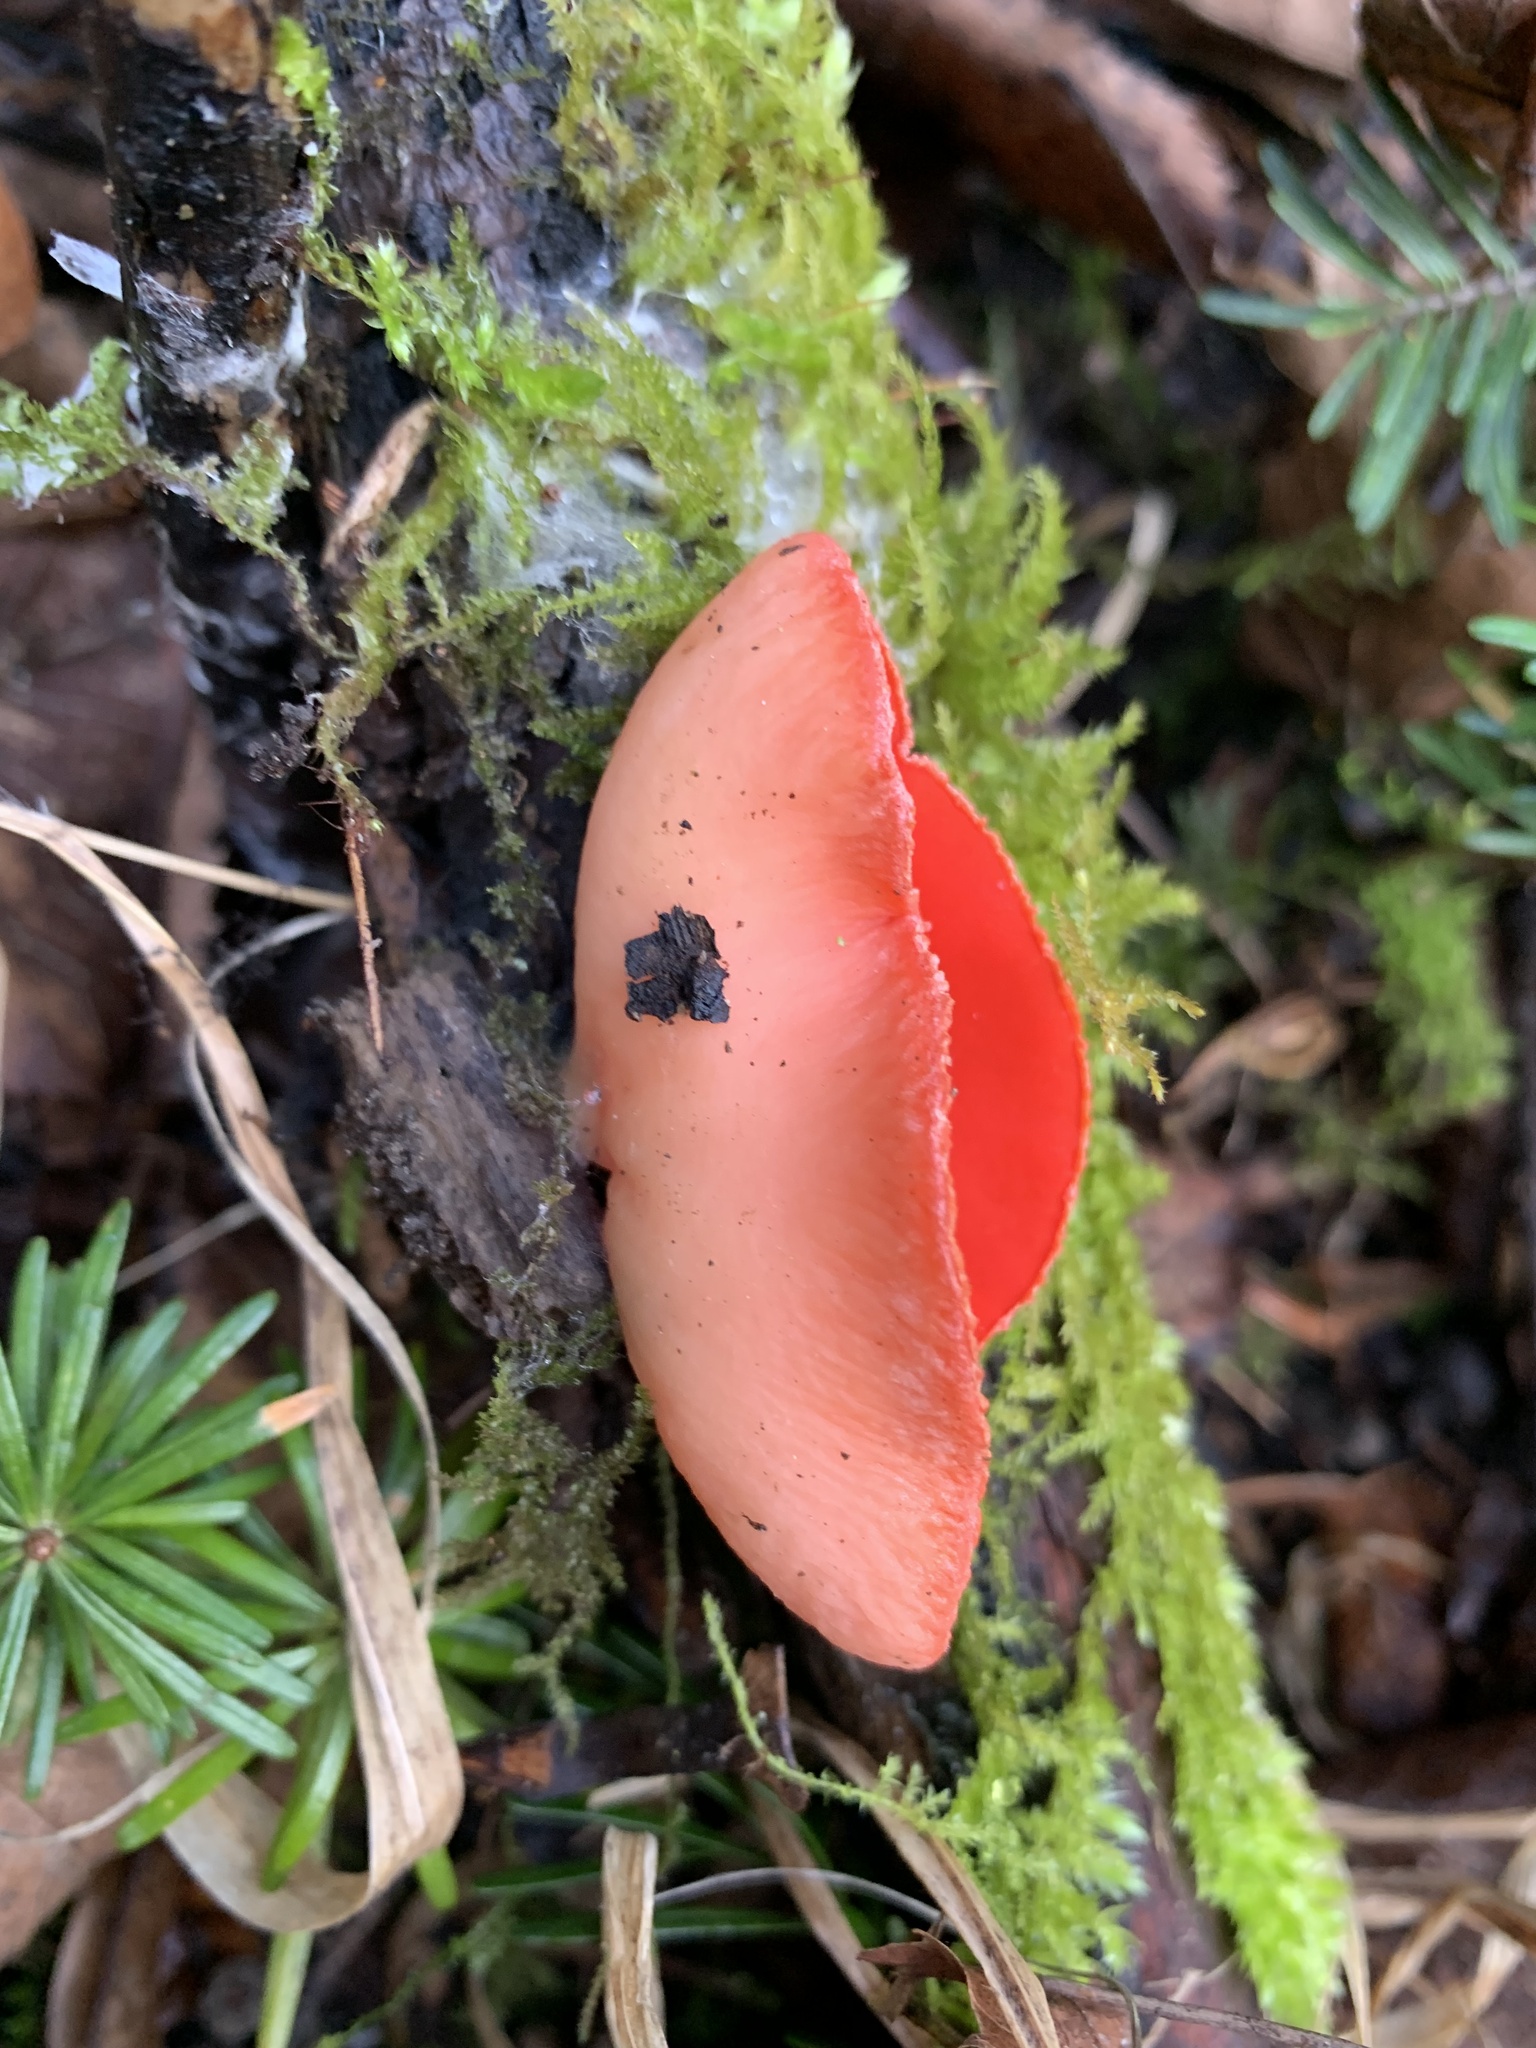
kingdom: Fungi
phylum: Ascomycota
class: Pezizomycetes
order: Pezizales
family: Sarcoscyphaceae
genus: Sarcoscypha
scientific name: Sarcoscypha
